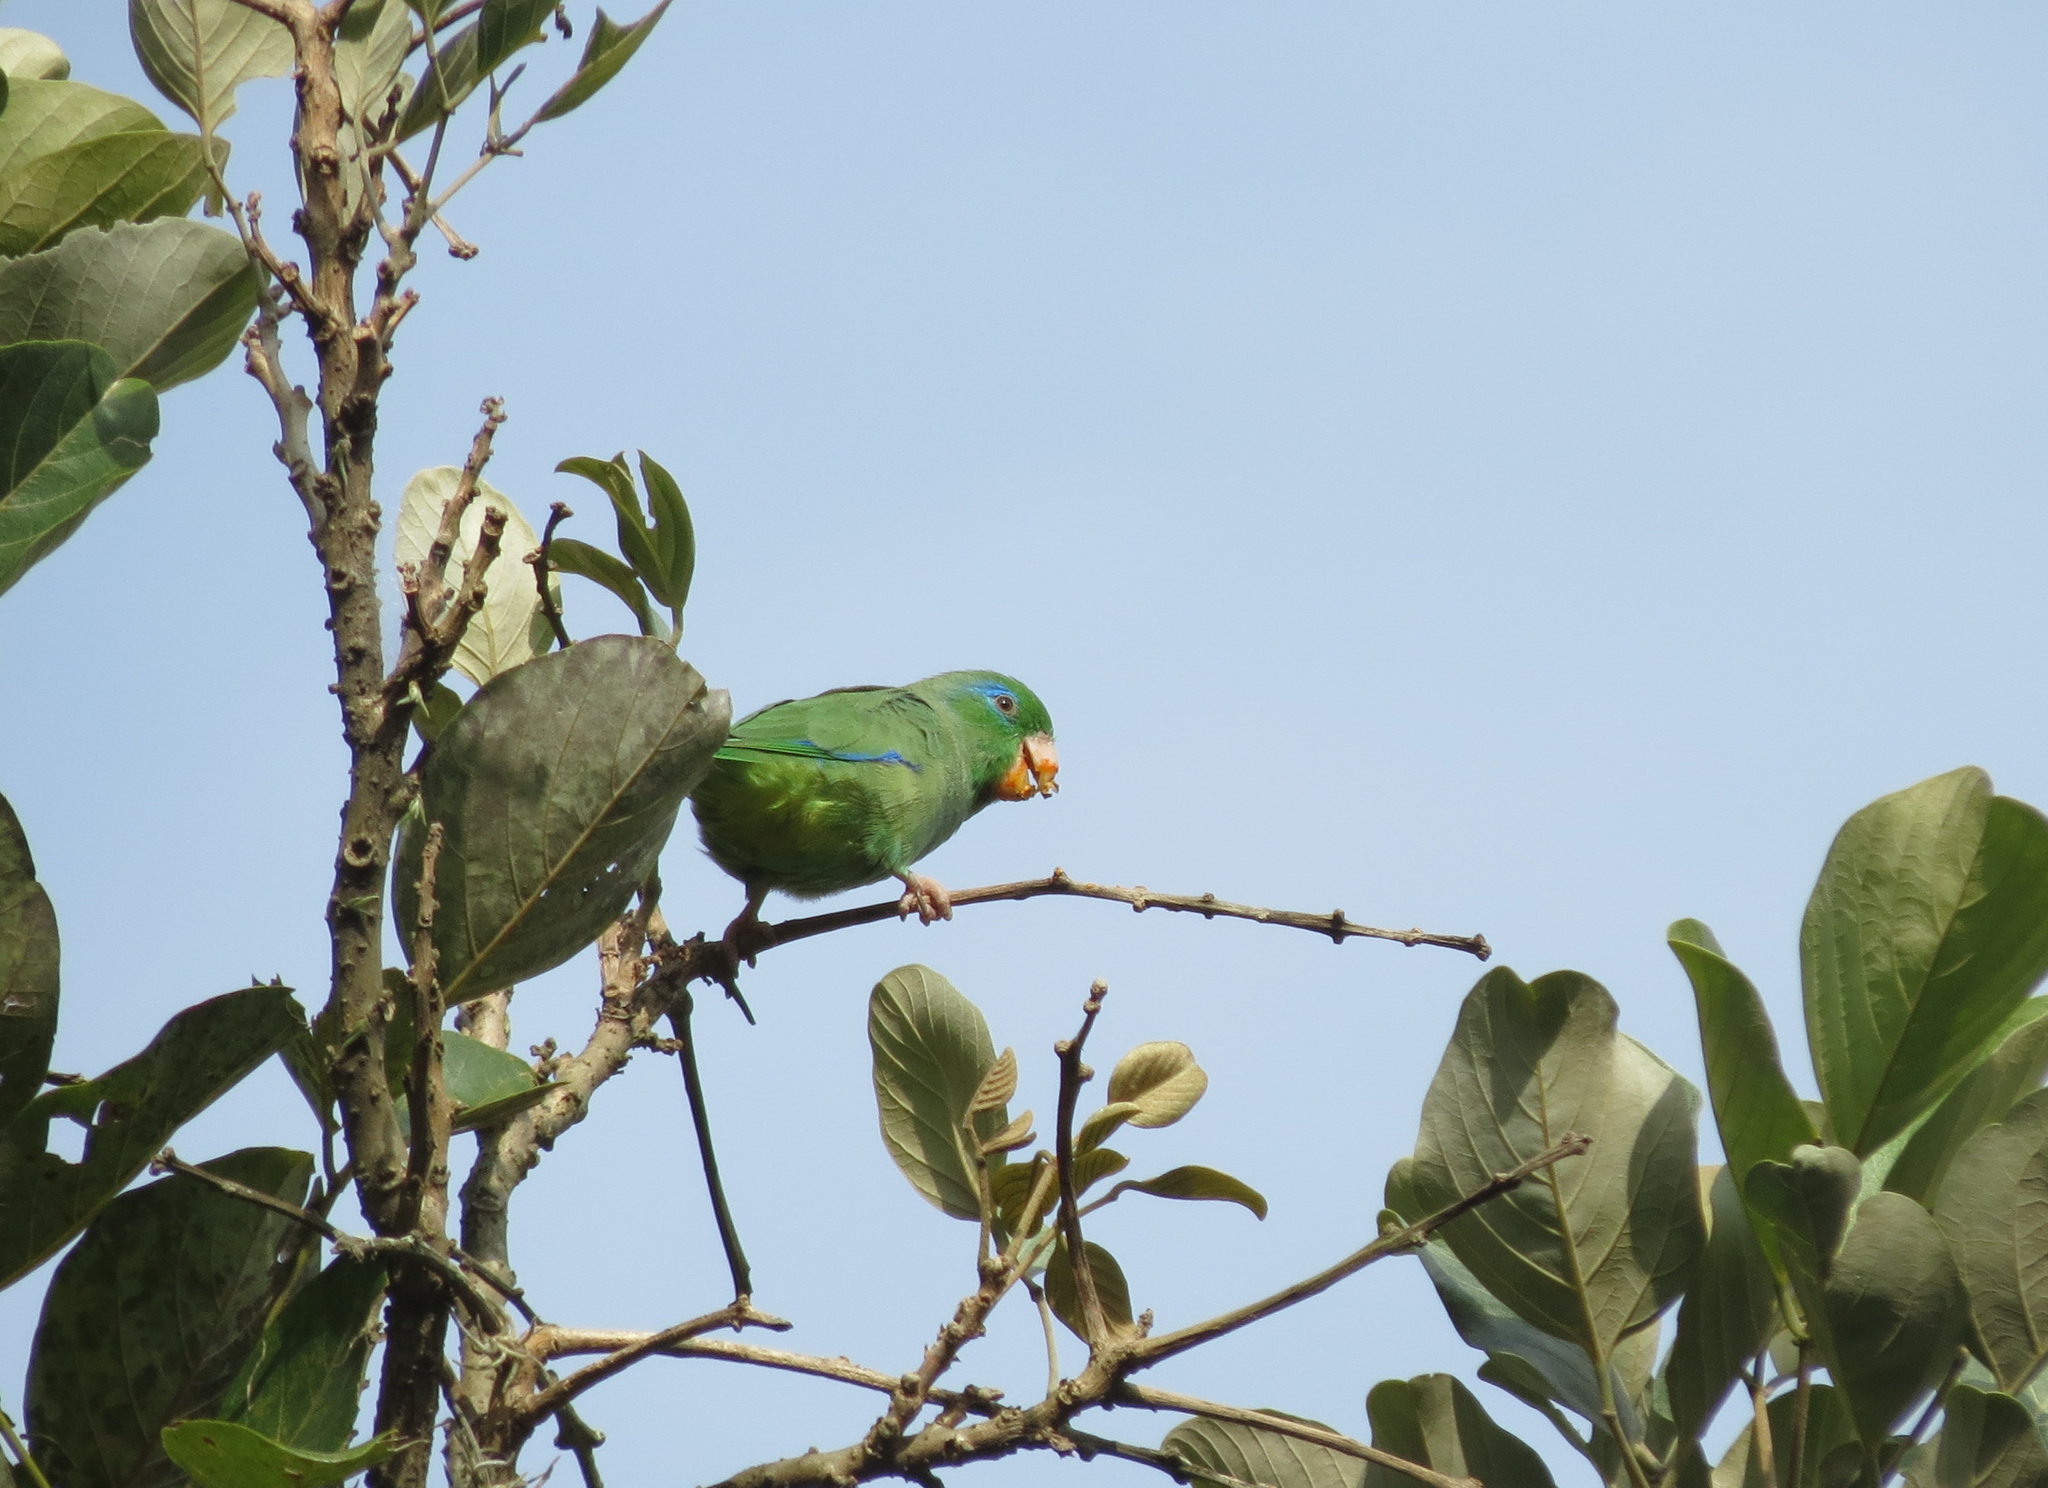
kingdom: Animalia
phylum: Chordata
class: Aves
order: Psittaciformes
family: Psittacidae
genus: Forpus
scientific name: Forpus conspicillatus
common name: Spectacled parrotlet
